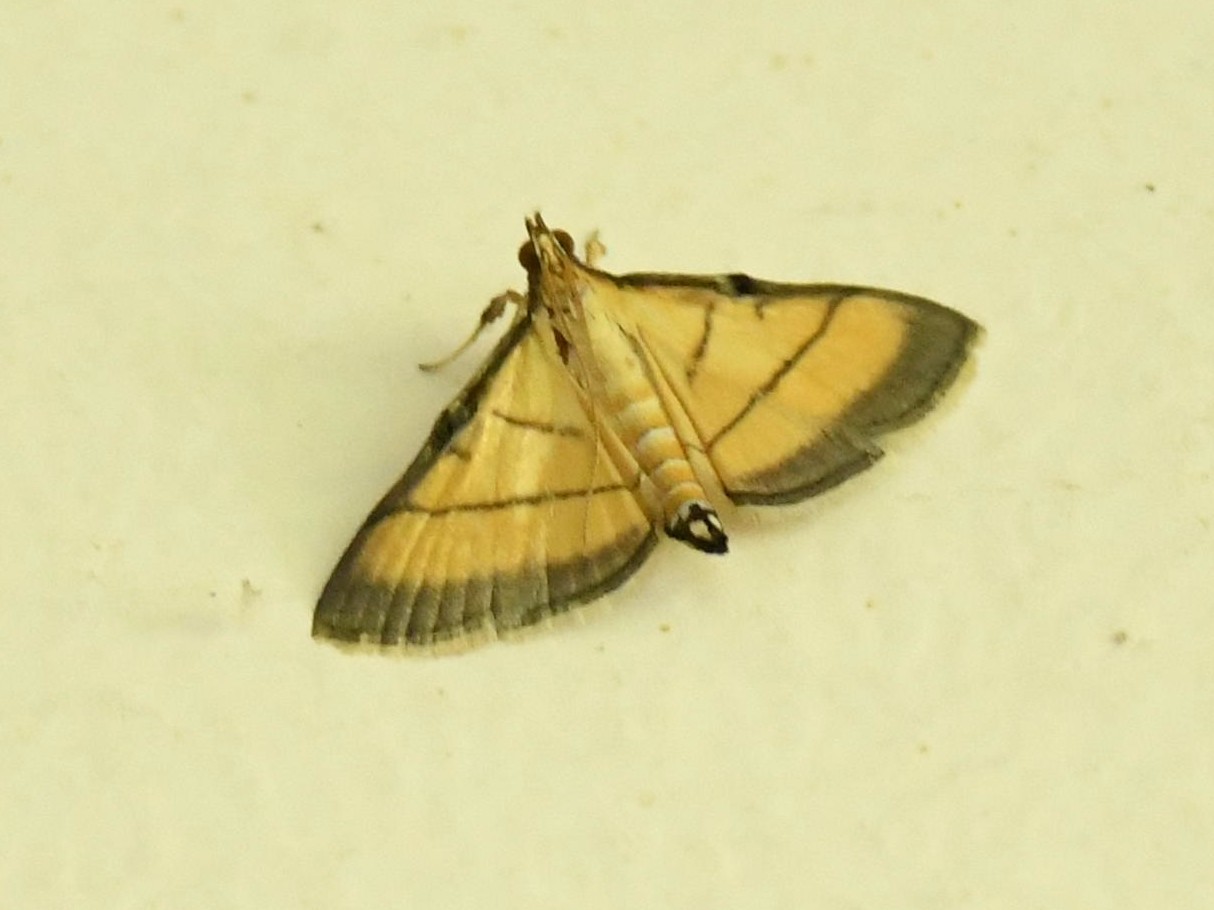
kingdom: Animalia
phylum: Arthropoda
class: Insecta
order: Lepidoptera
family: Crambidae
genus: Cnaphalocrocis
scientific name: Cnaphalocrocis medinalis
